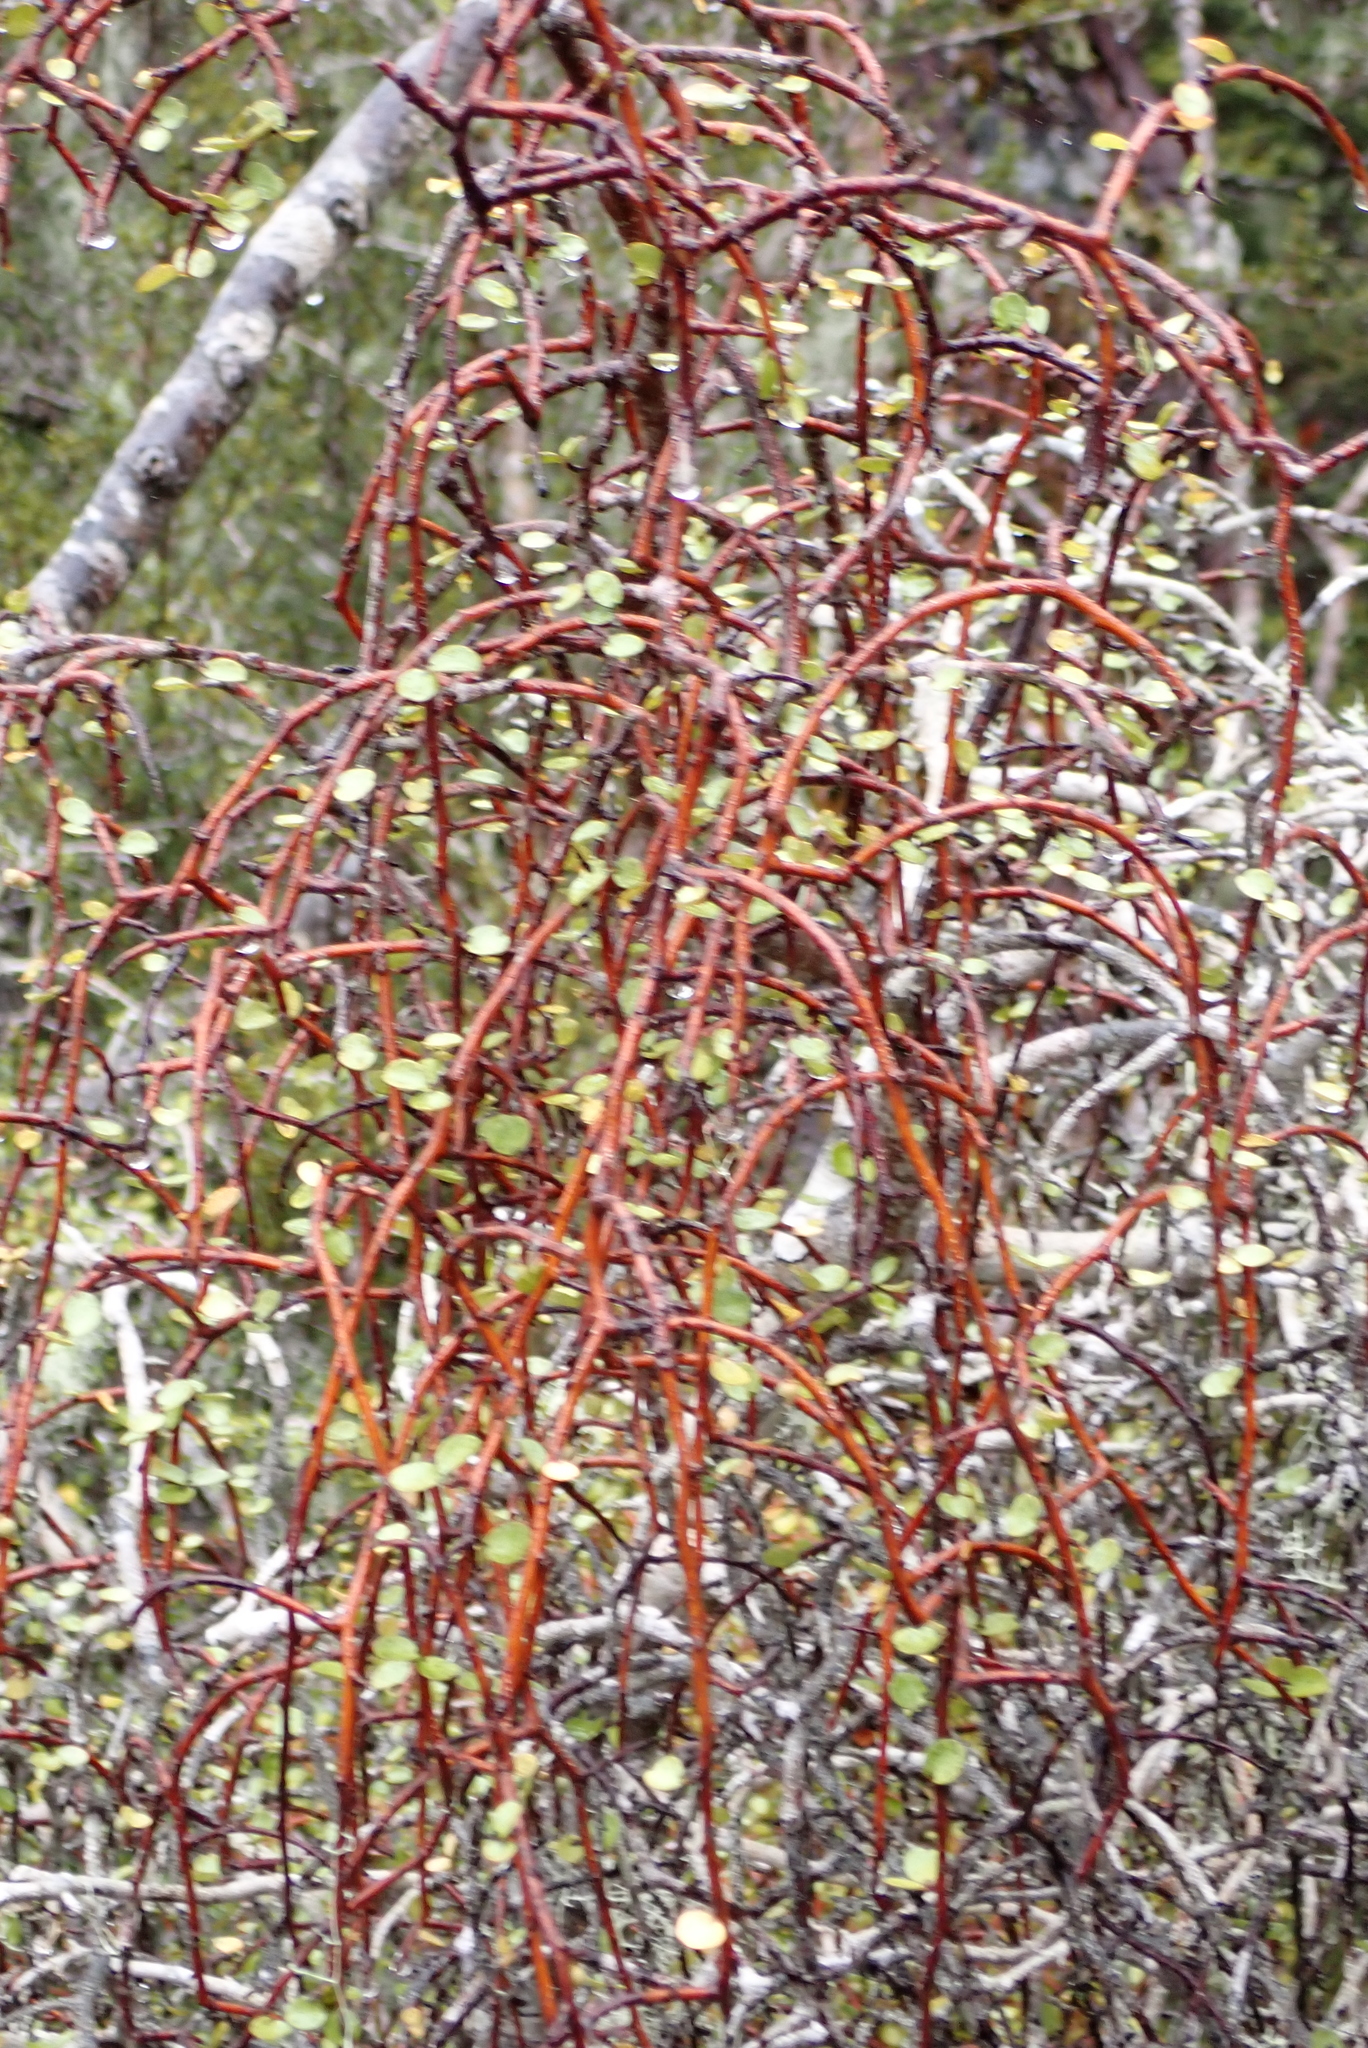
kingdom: Plantae
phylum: Tracheophyta
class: Magnoliopsida
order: Ericales
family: Primulaceae
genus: Myrsine
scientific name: Myrsine divaricata
